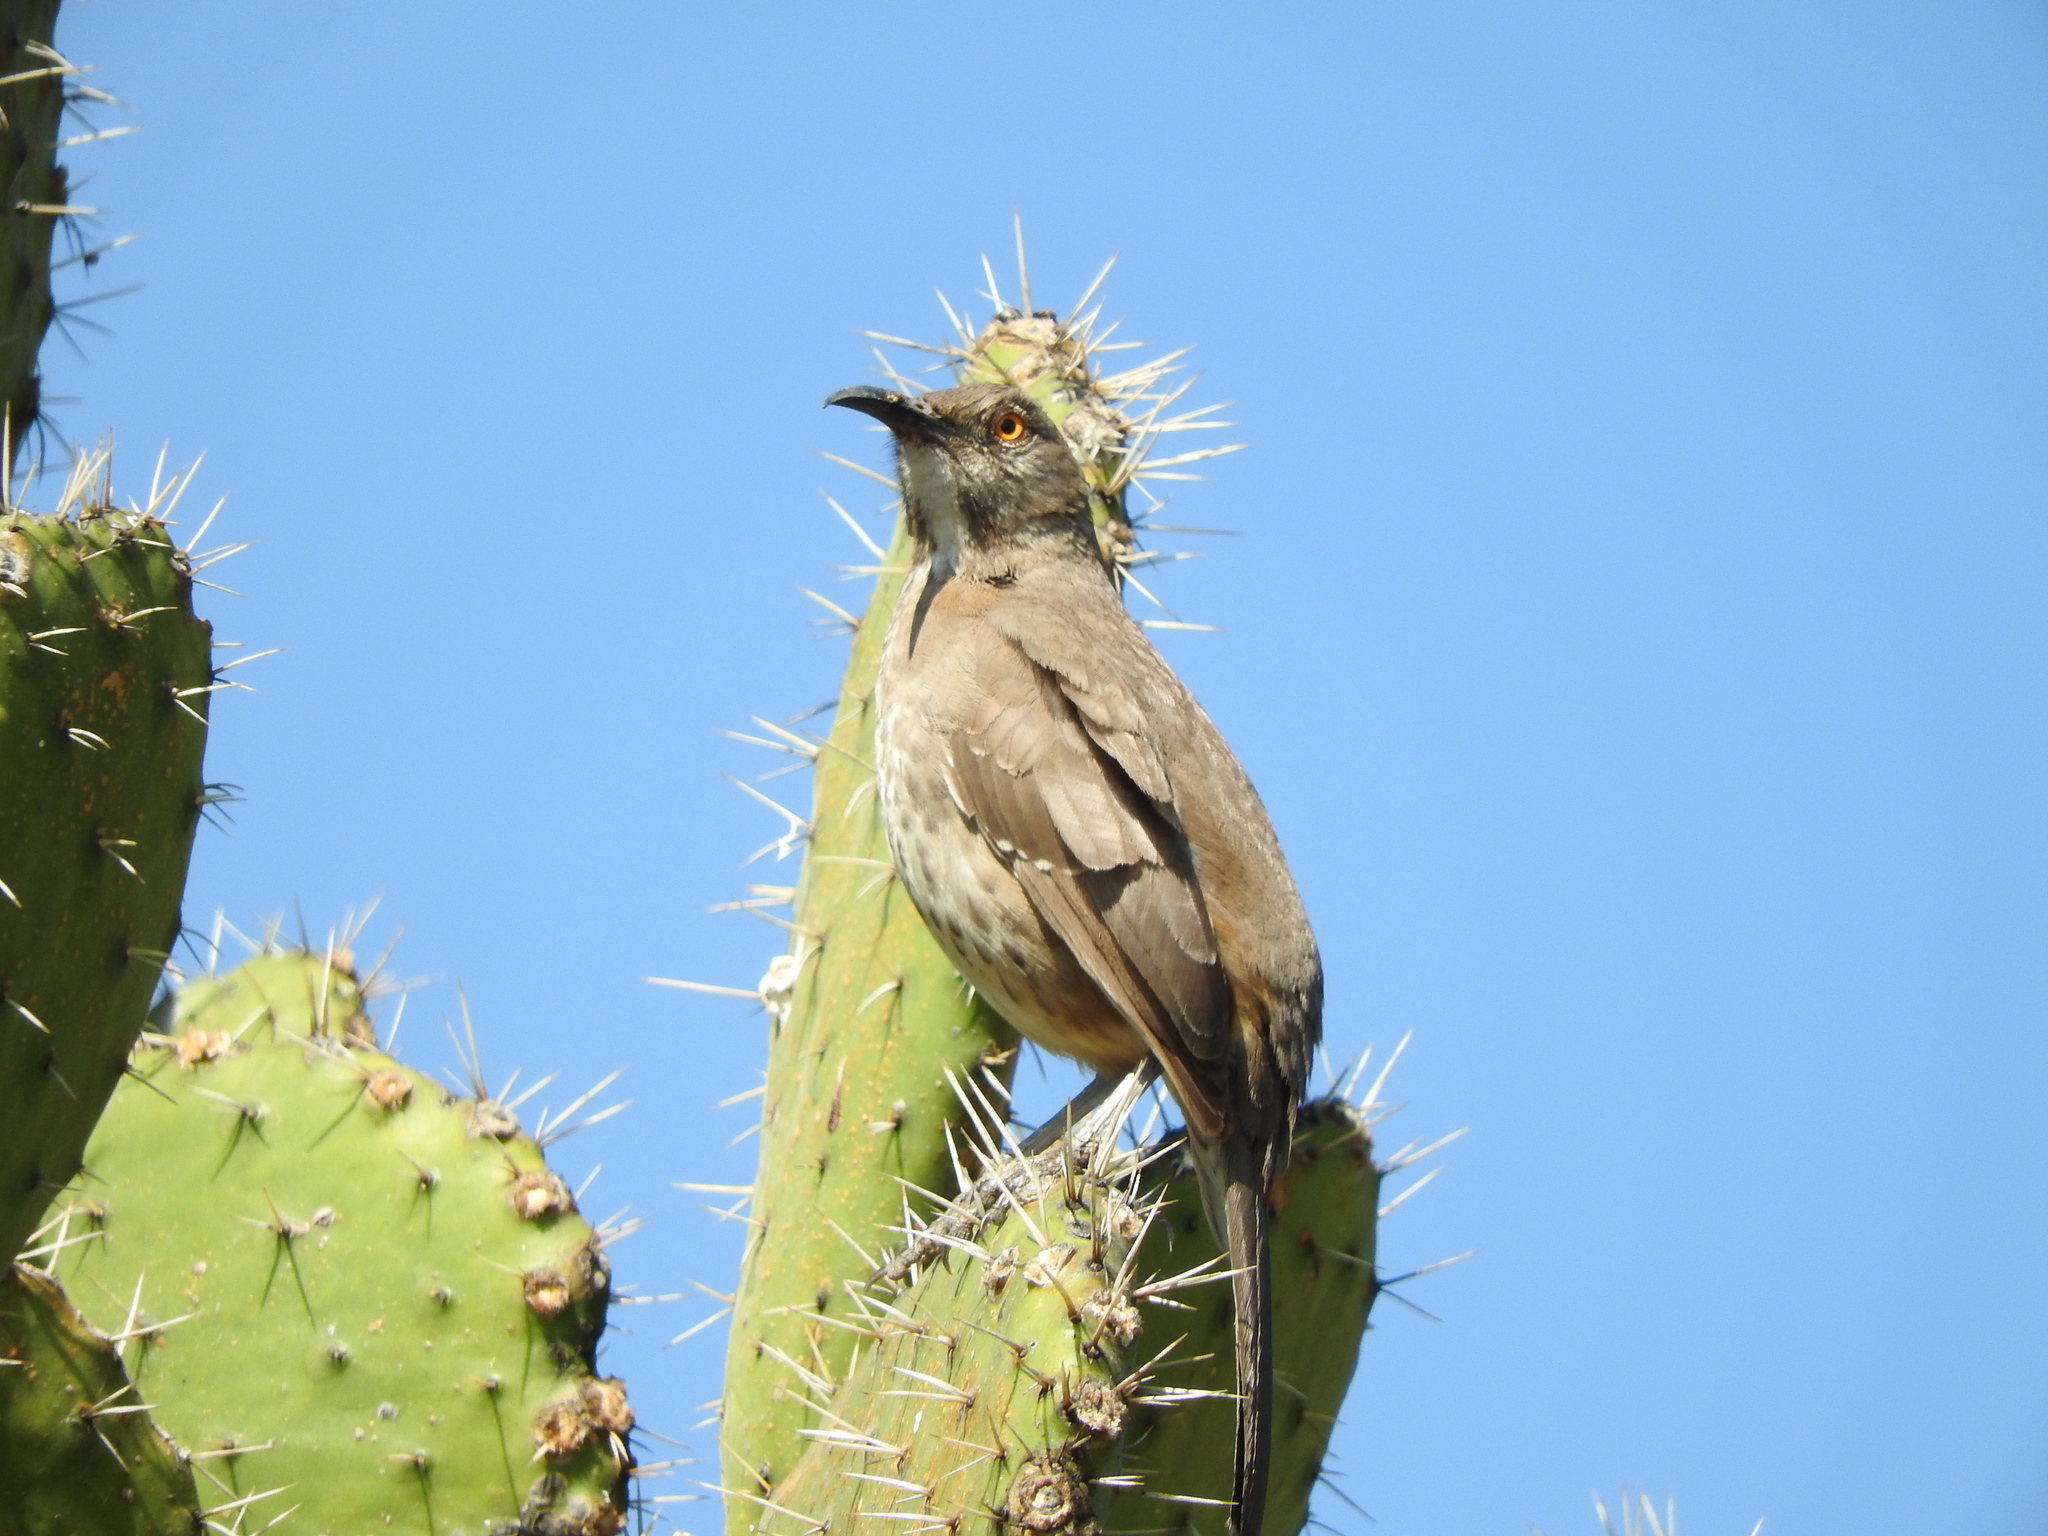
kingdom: Animalia
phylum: Chordata
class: Aves
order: Passeriformes
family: Mimidae
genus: Toxostoma
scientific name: Toxostoma curvirostre
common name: Curve-billed thrasher
